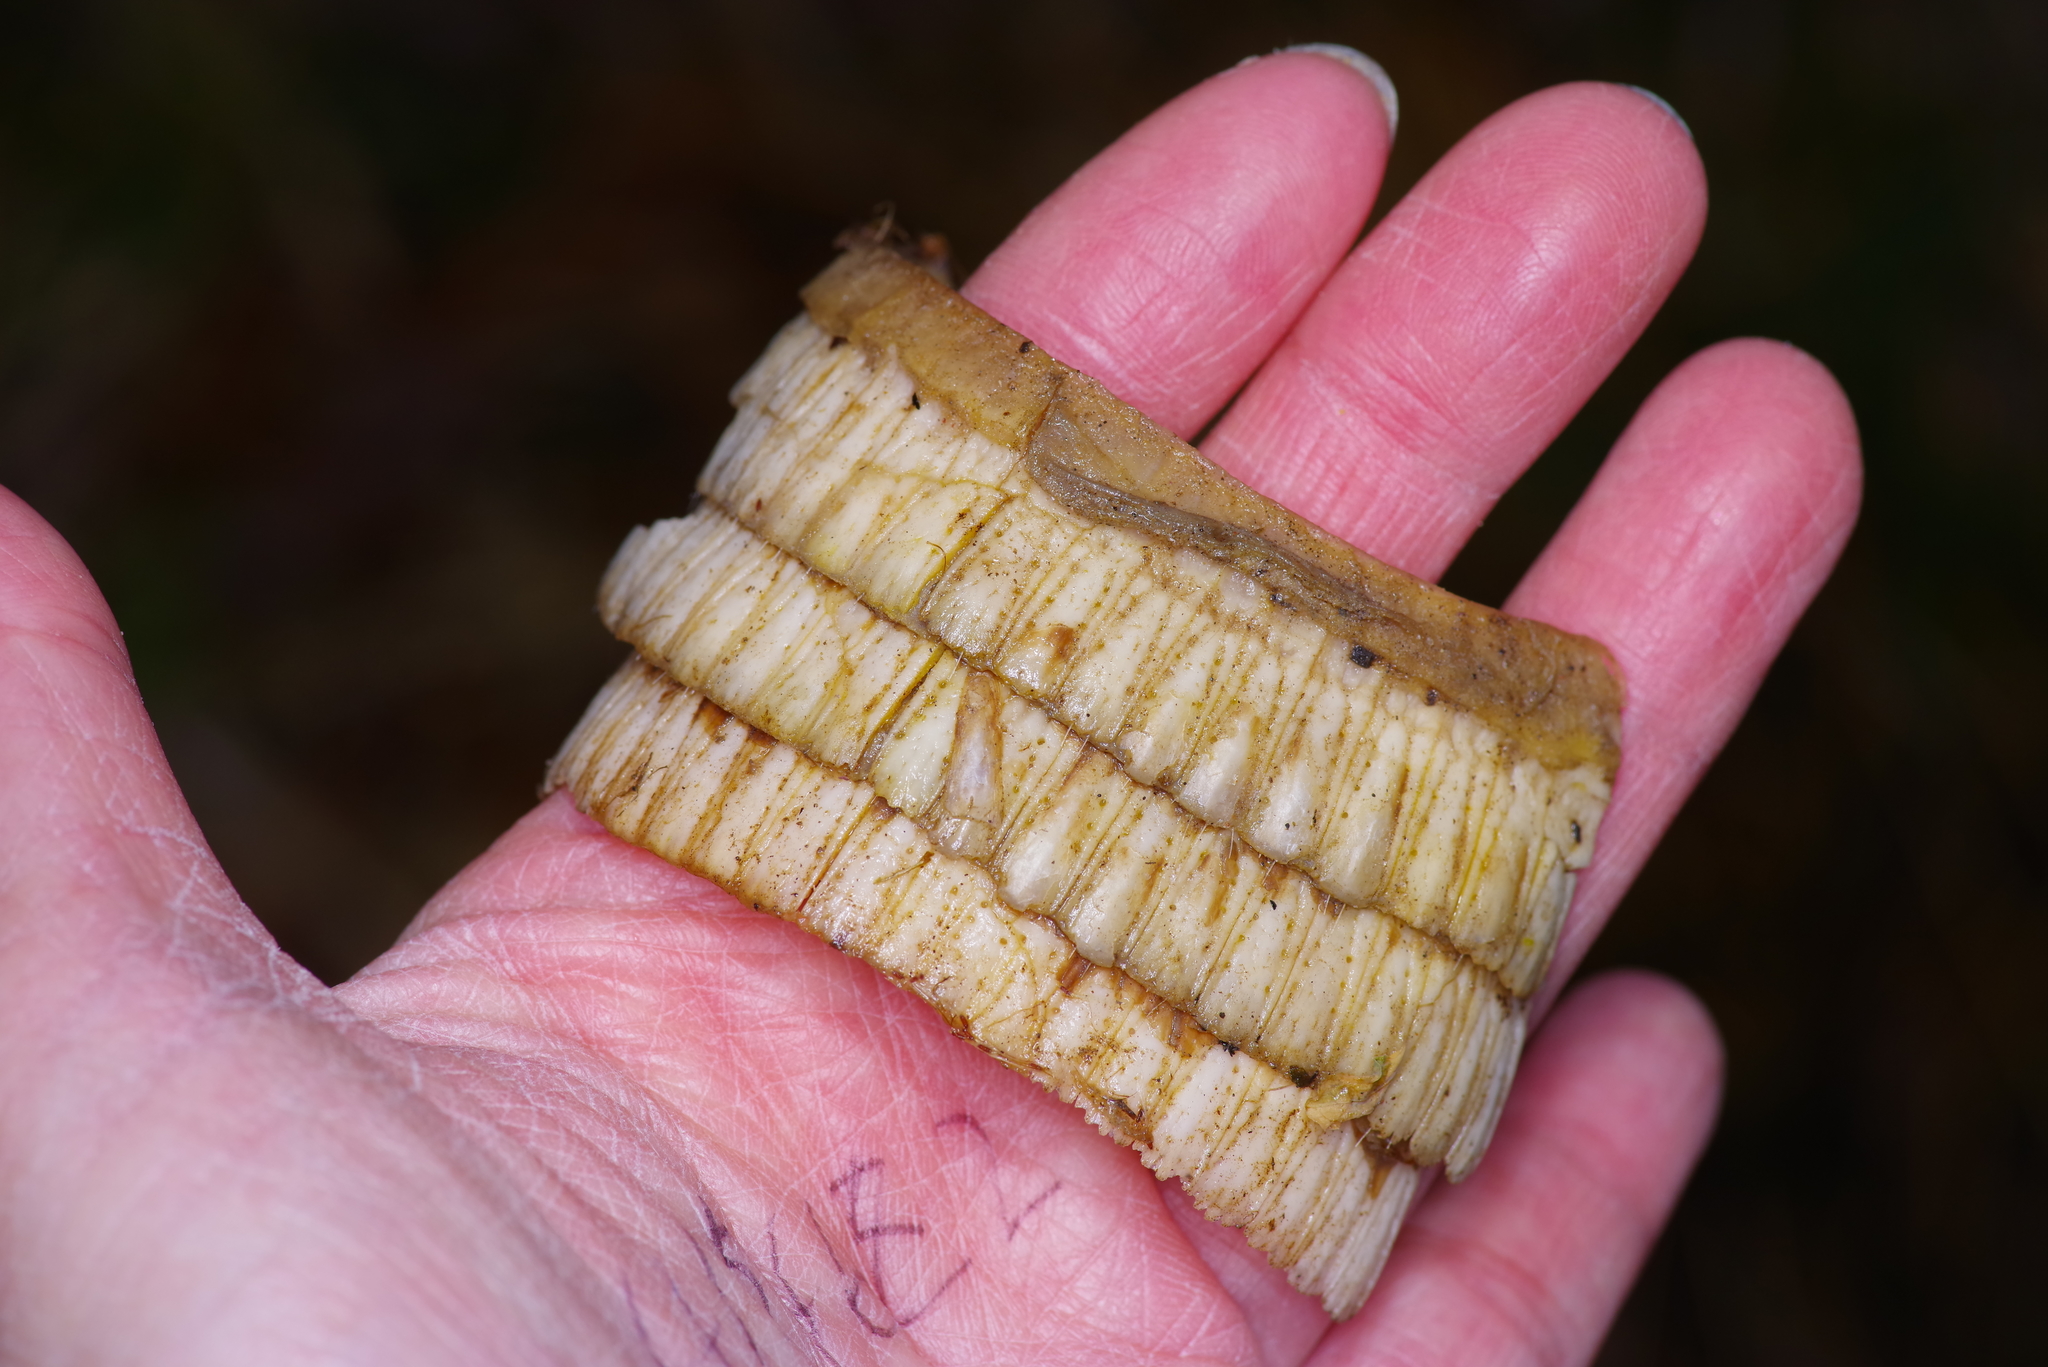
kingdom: Animalia
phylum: Chordata
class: Mammalia
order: Cingulata
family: Dasypodidae
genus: Dasypus
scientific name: Dasypus novemcinctus
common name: Nine-banded armadillo
